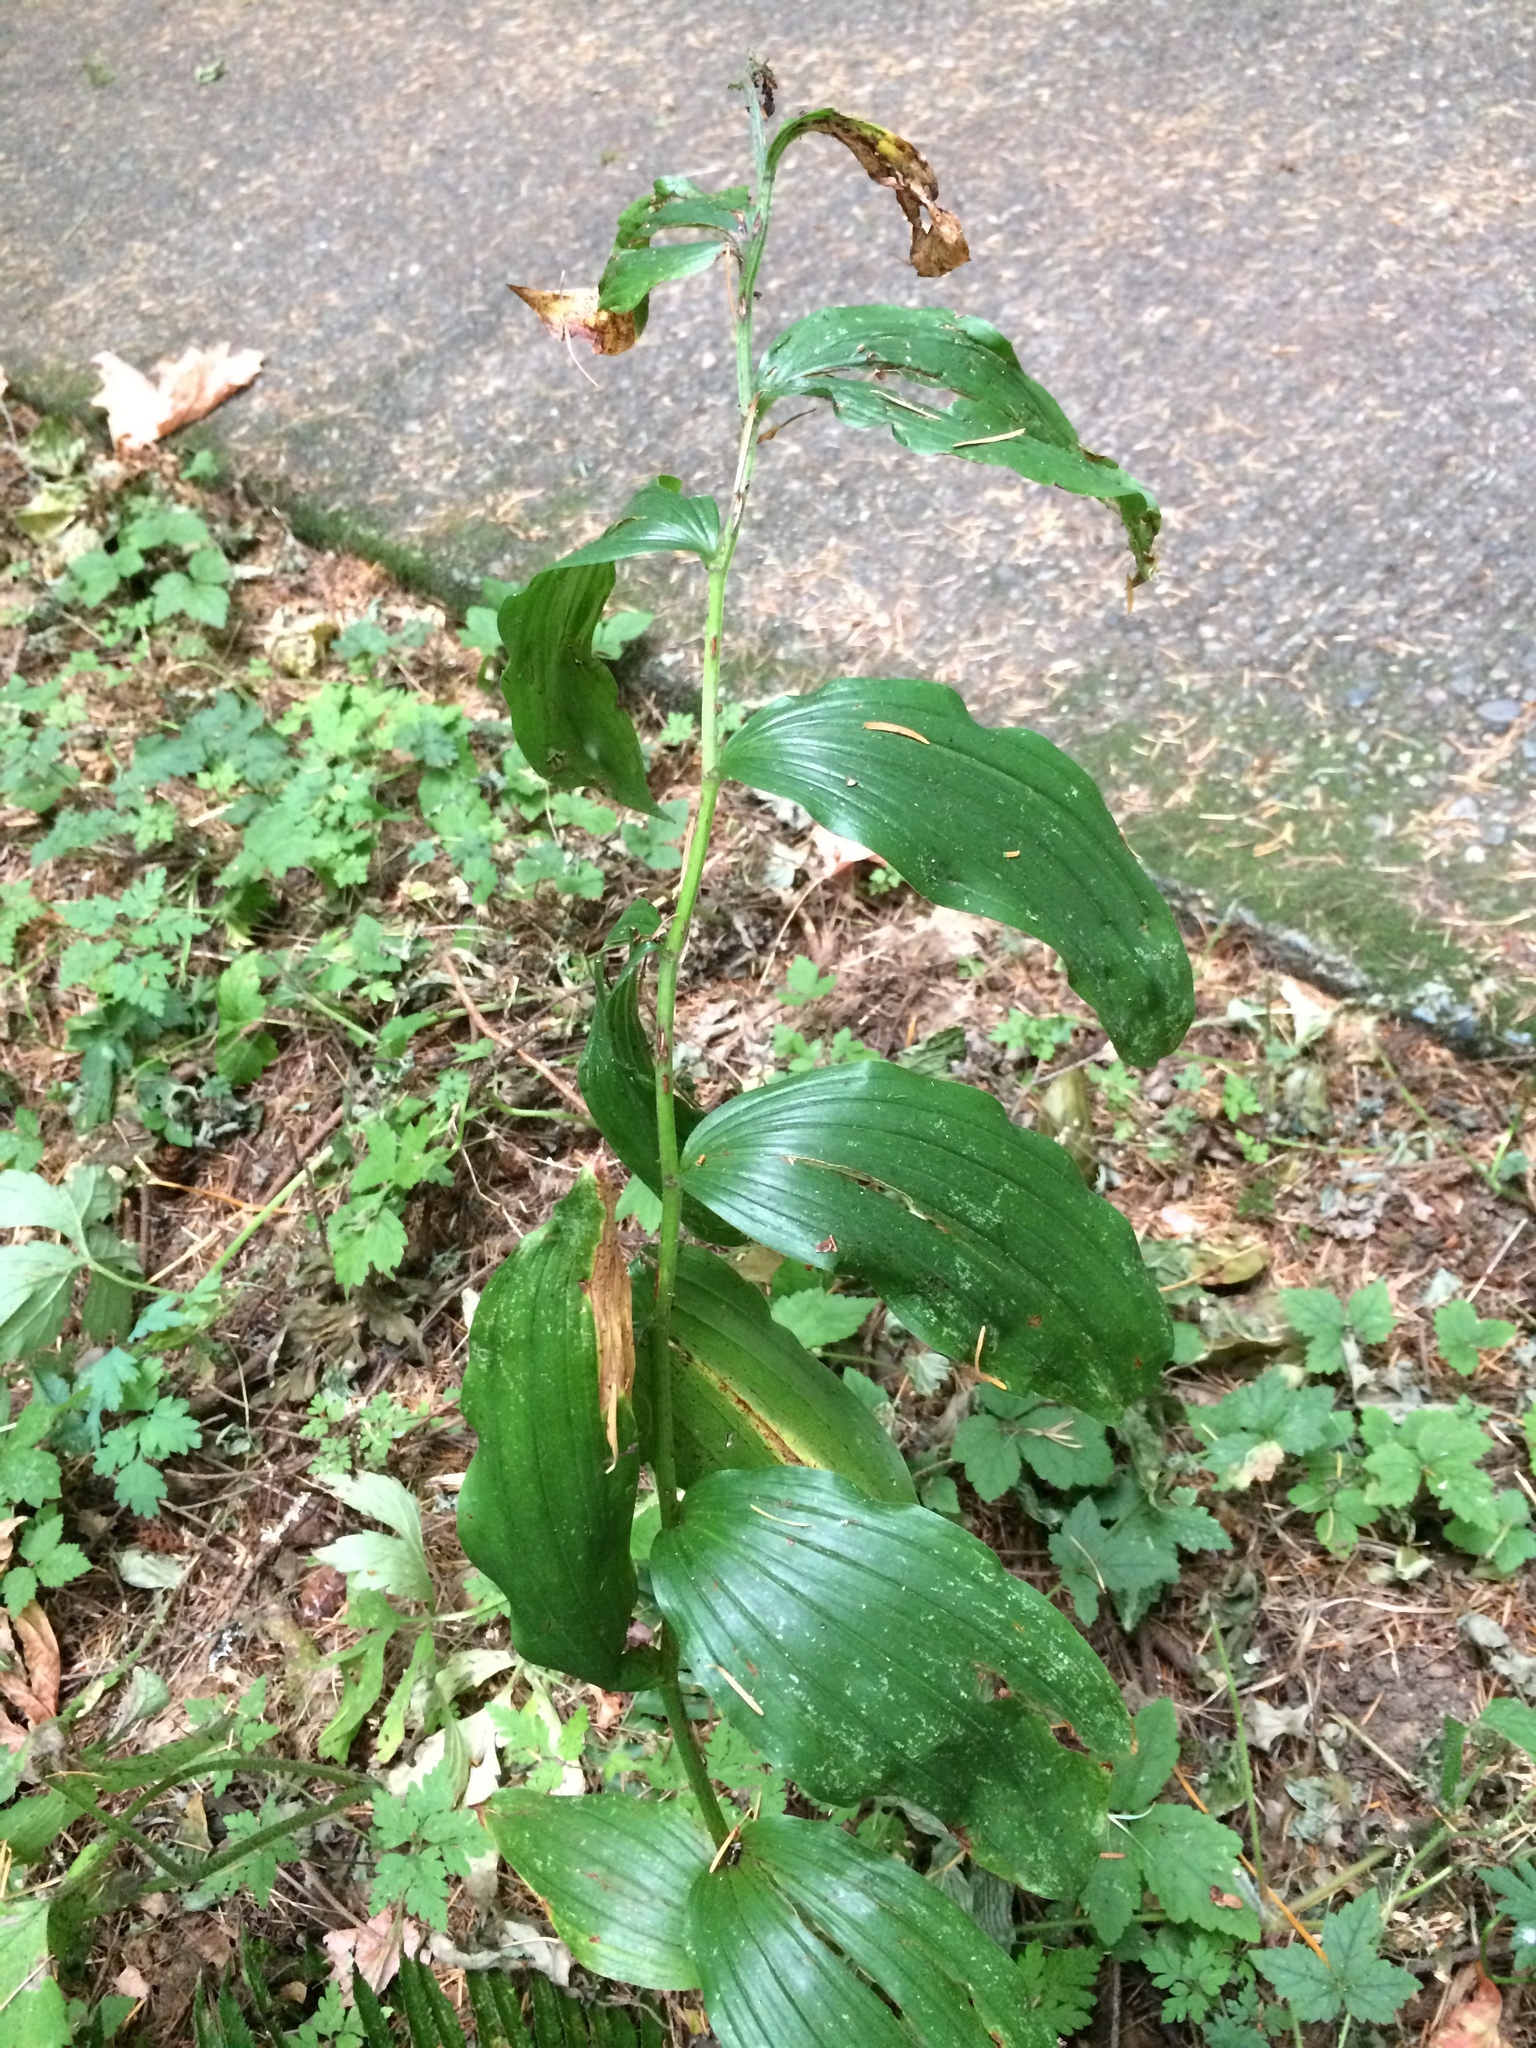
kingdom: Plantae
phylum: Tracheophyta
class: Liliopsida
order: Asparagales
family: Asparagaceae
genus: Maianthemum
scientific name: Maianthemum racemosum
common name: False spikenard
